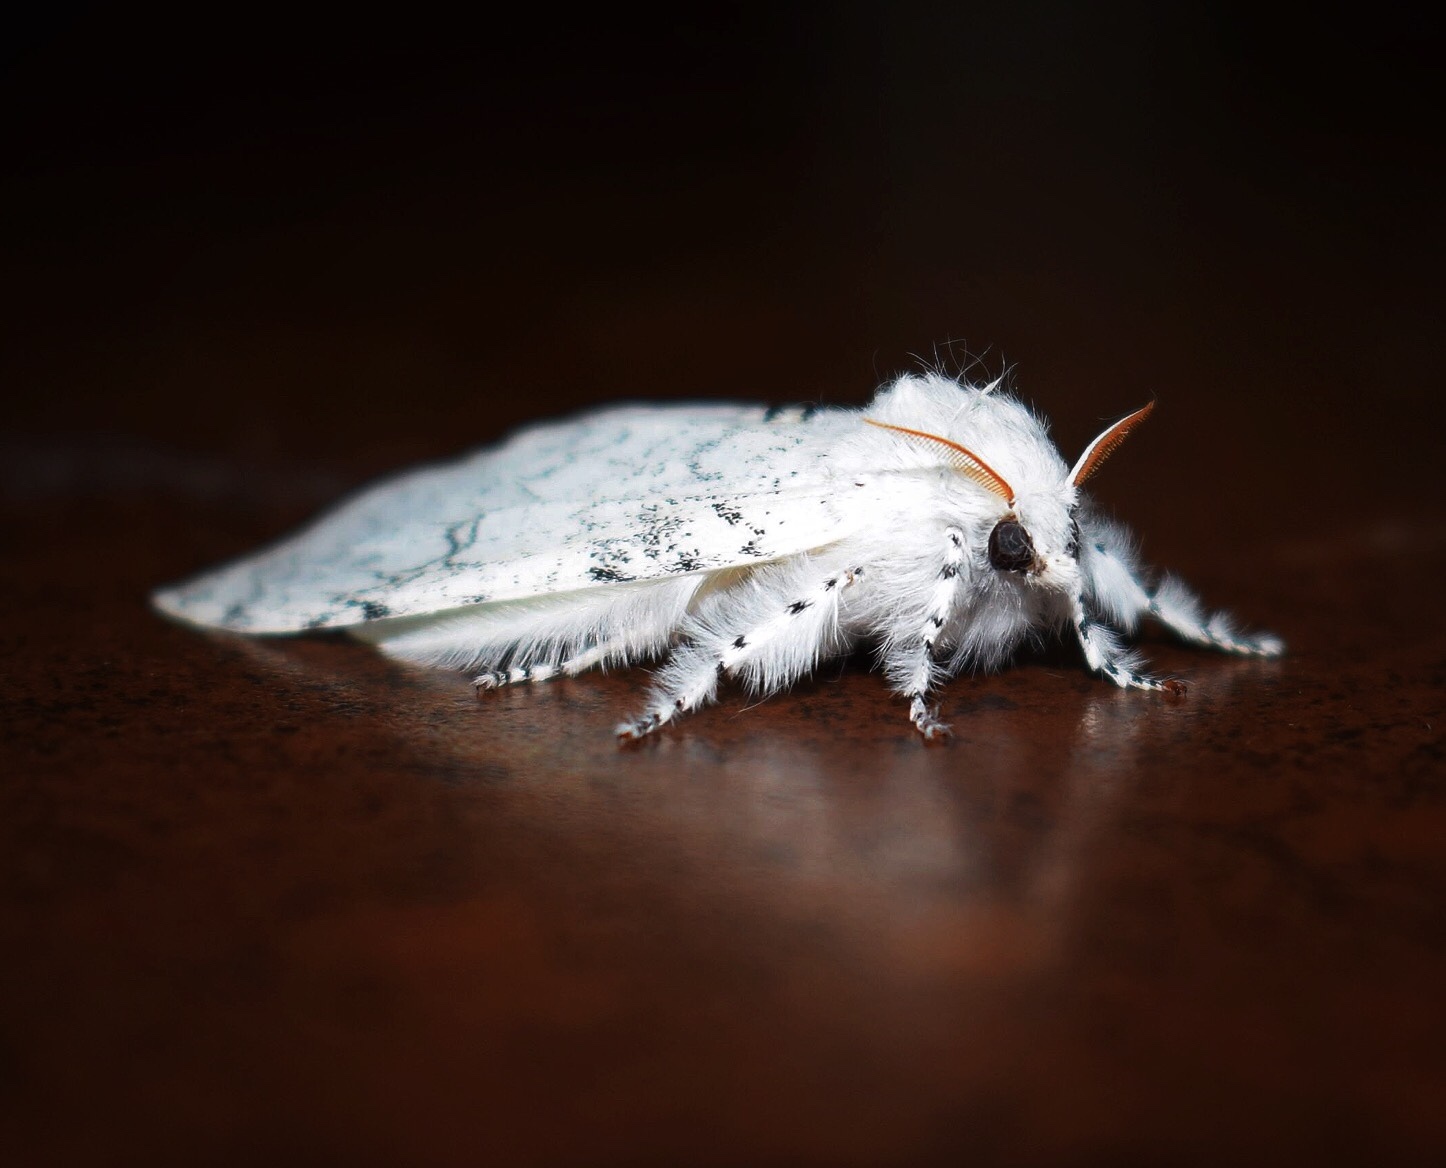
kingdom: Animalia
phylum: Arthropoda
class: Insecta
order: Lepidoptera
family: Erebidae
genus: Dasychira
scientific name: Dasychira georgiana
